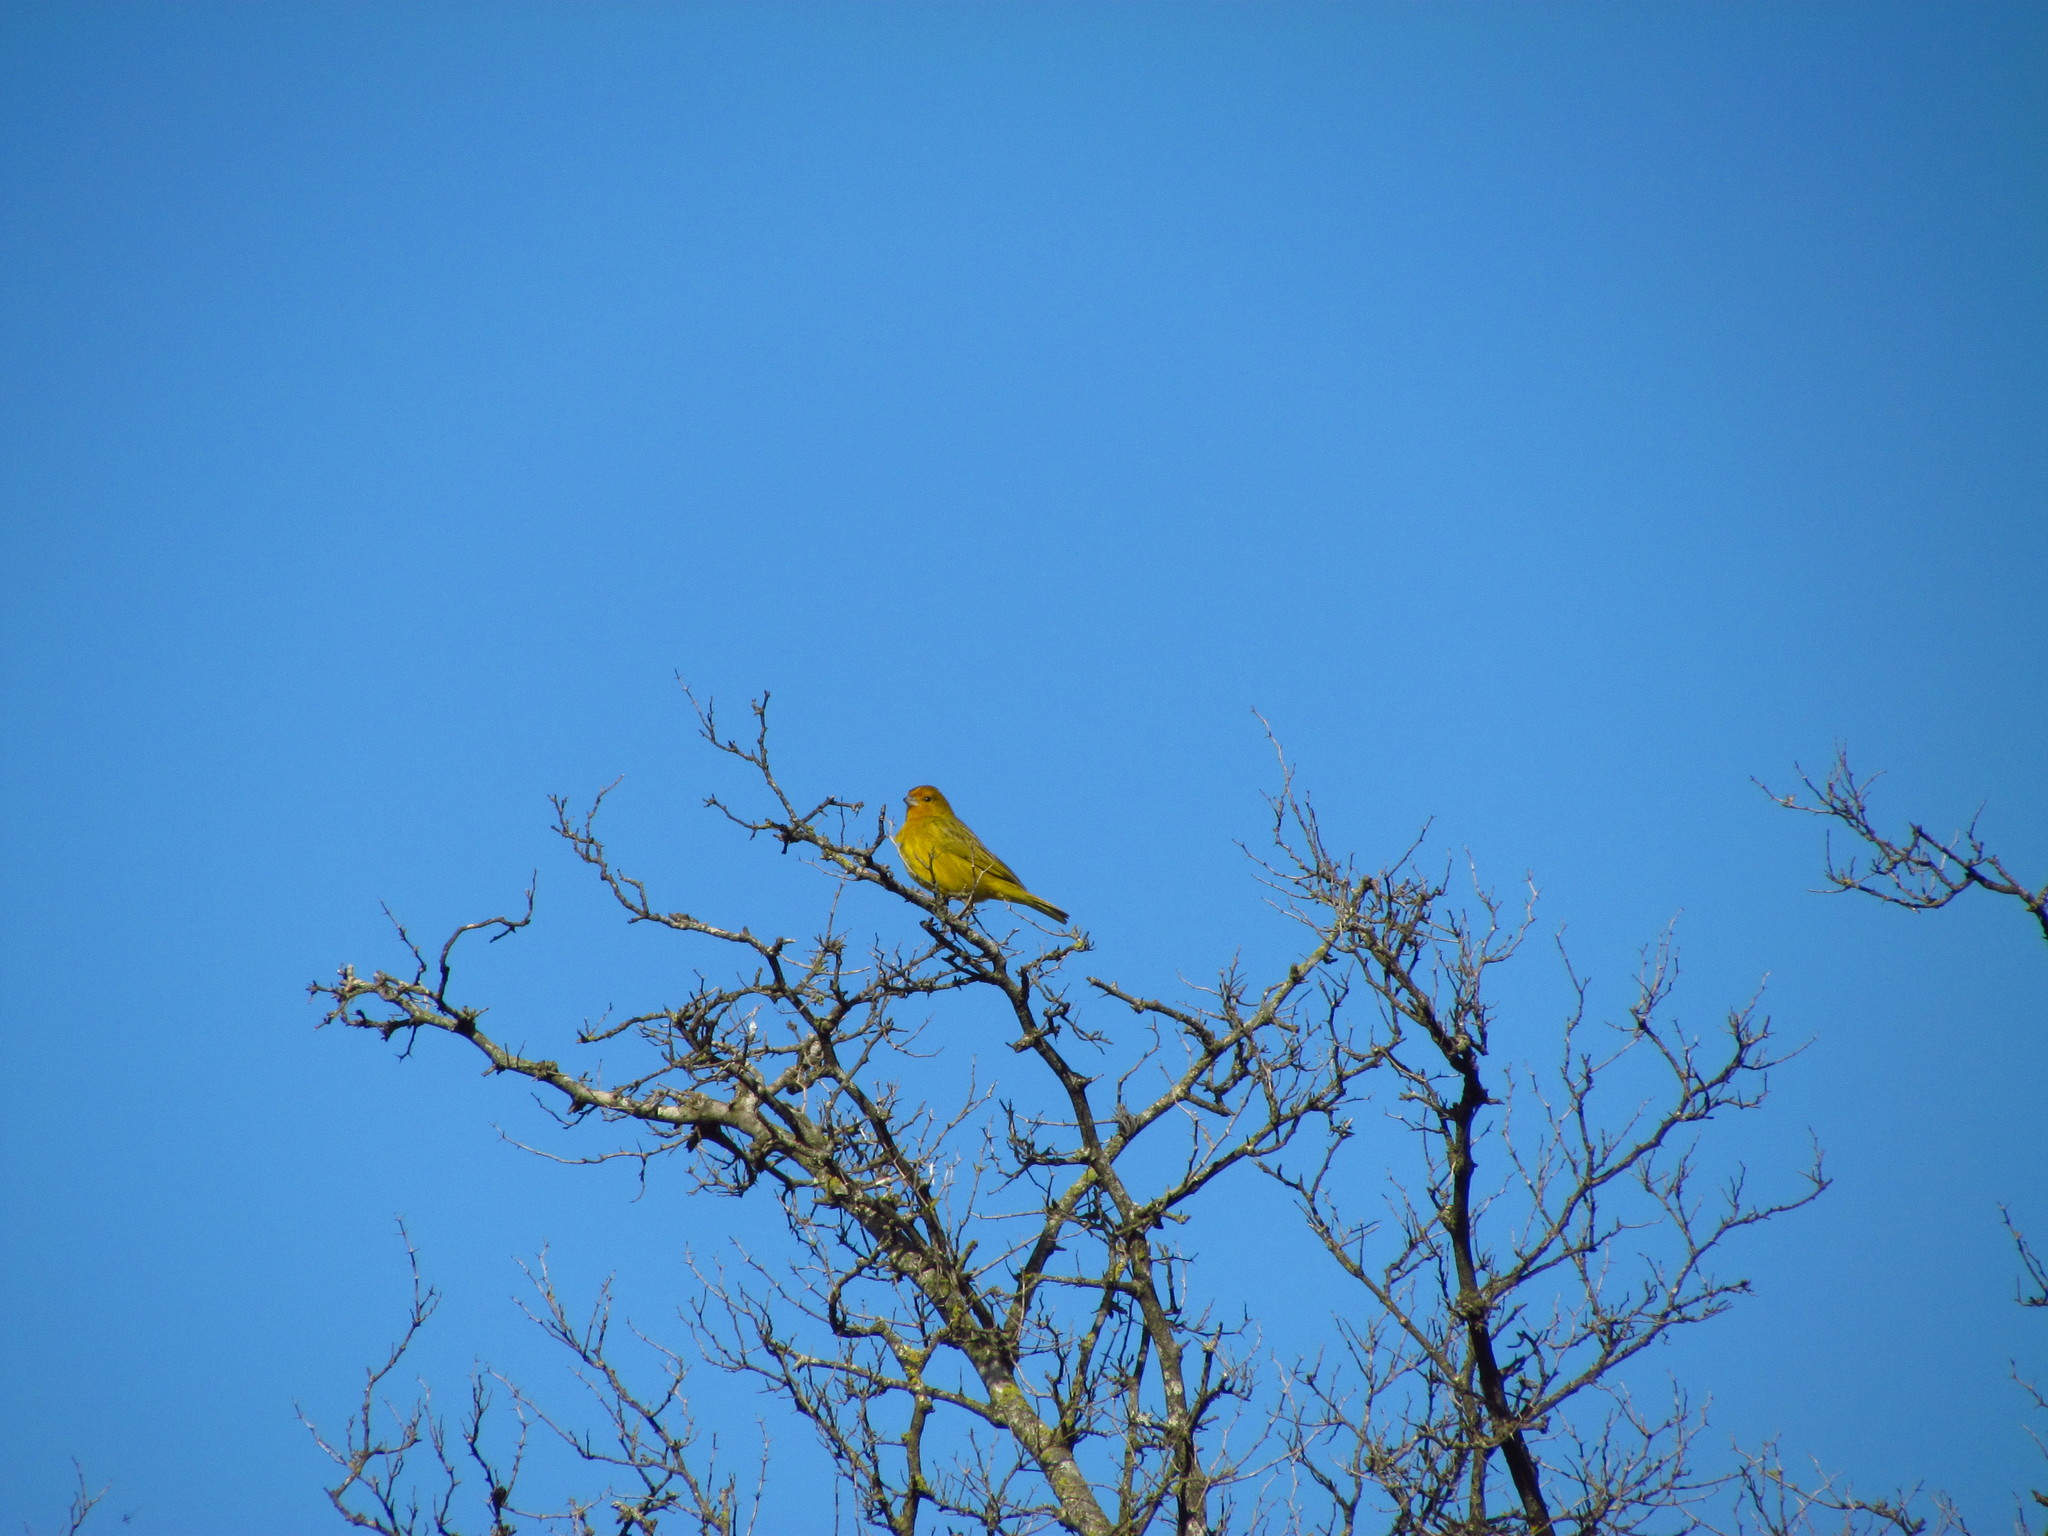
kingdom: Animalia
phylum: Chordata
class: Aves
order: Passeriformes
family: Thraupidae
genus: Sicalis
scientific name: Sicalis flaveola
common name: Saffron finch
